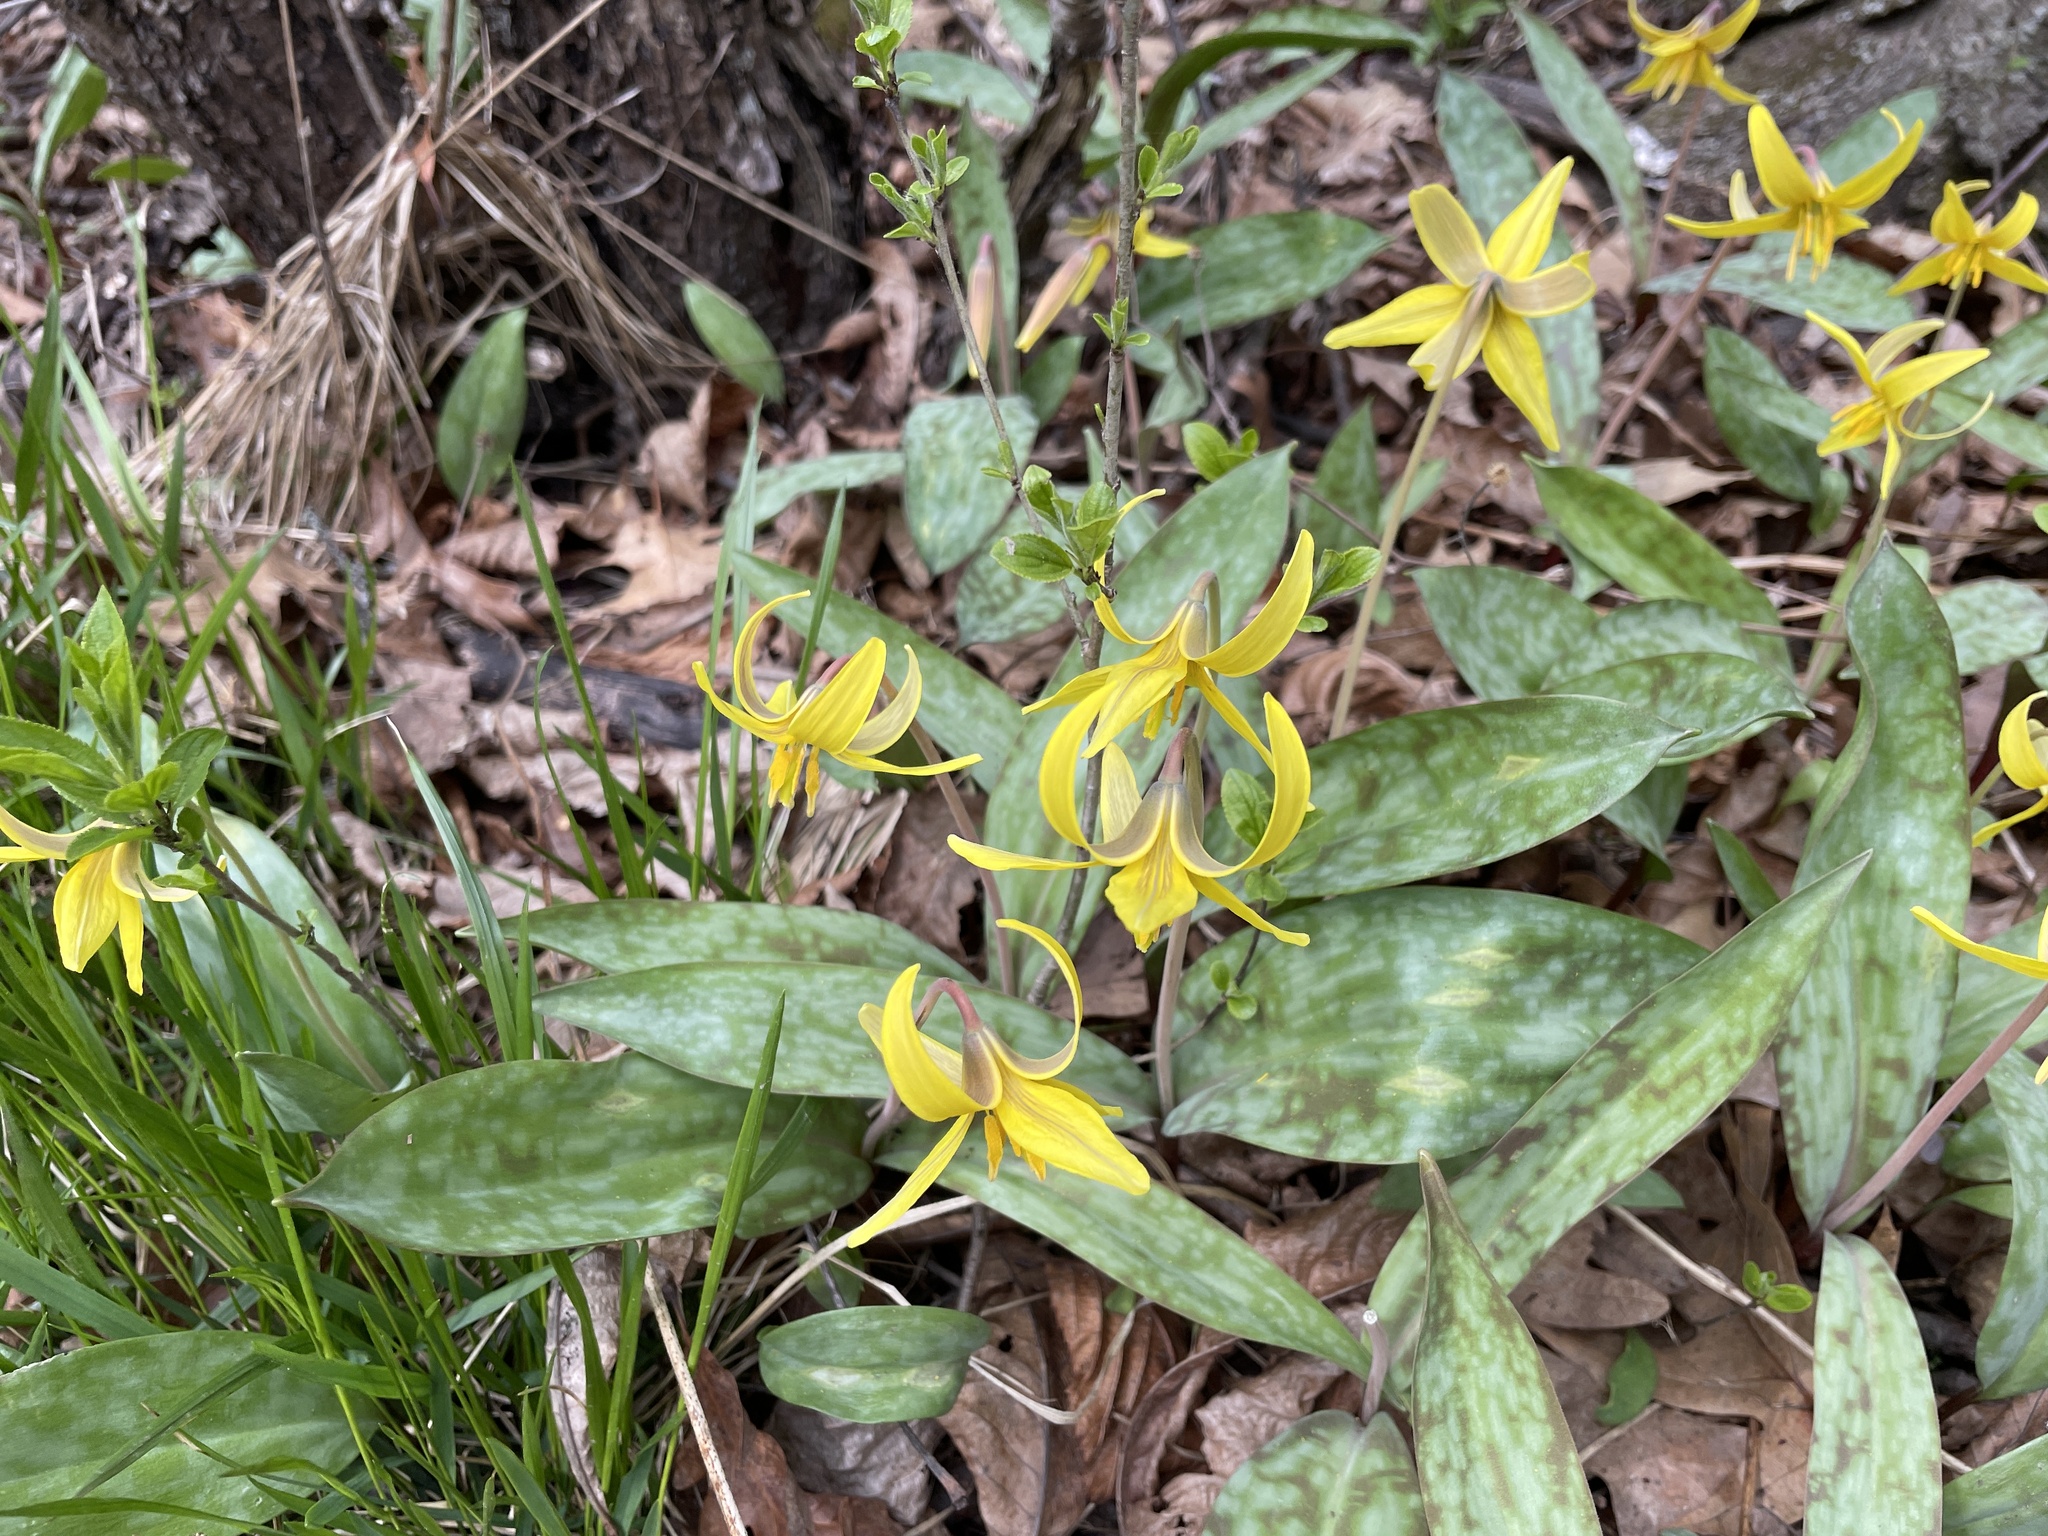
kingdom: Plantae
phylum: Tracheophyta
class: Liliopsida
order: Liliales
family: Liliaceae
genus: Erythronium
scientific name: Erythronium americanum
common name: Yellow adder's-tongue
